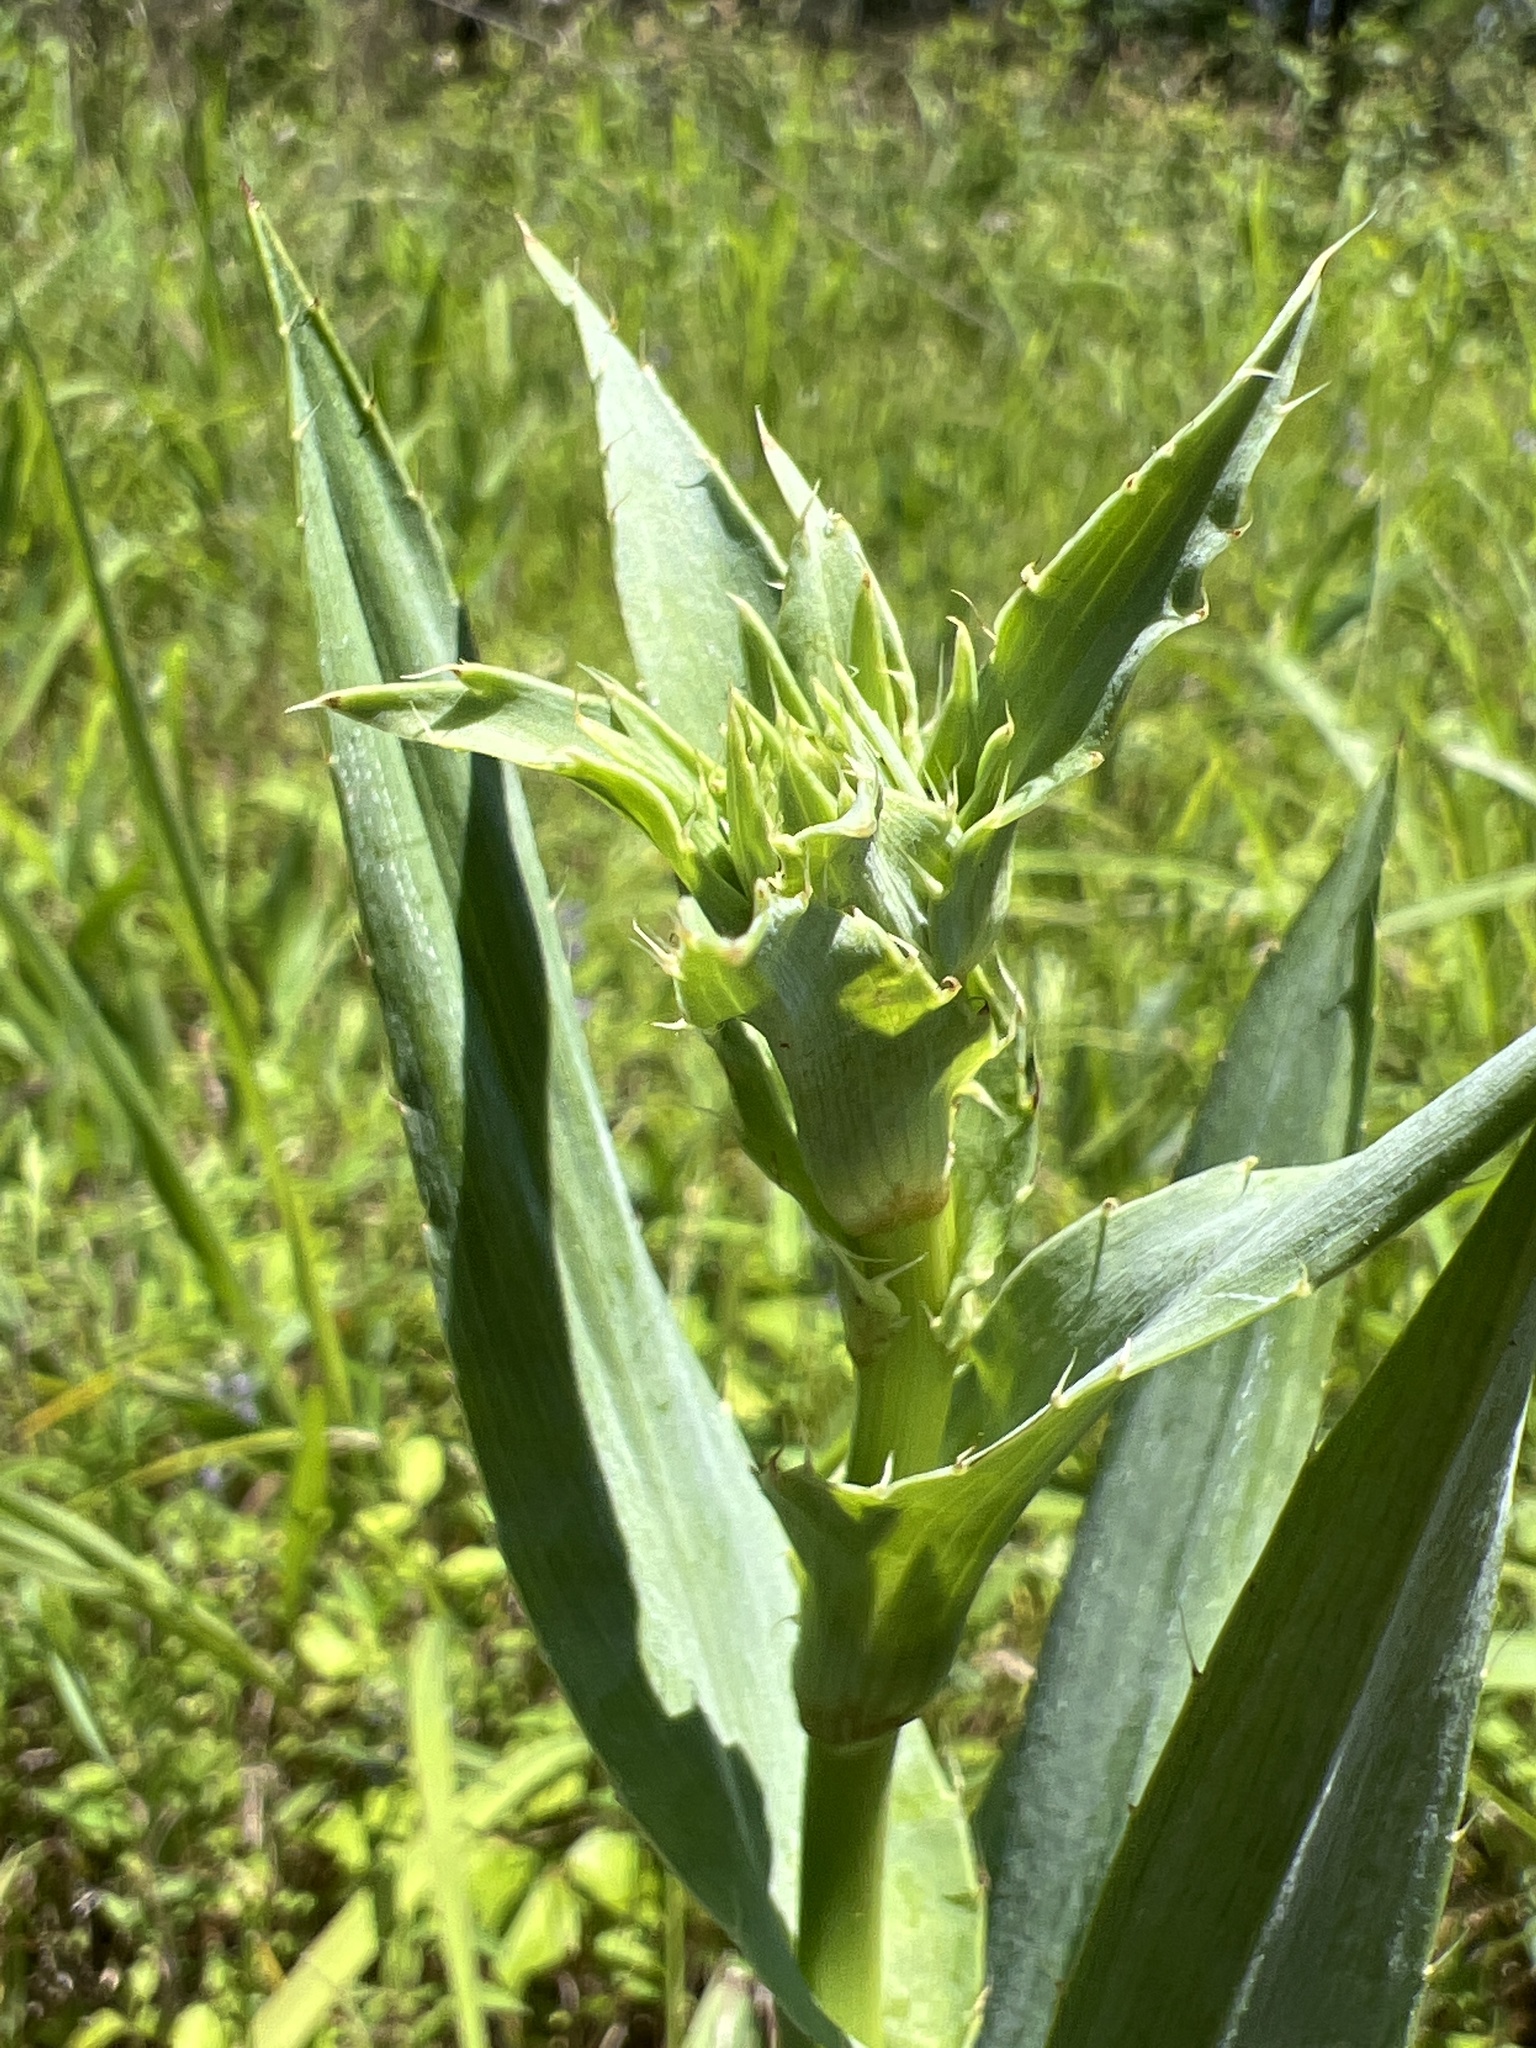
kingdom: Plantae
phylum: Tracheophyta
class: Magnoliopsida
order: Apiales
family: Apiaceae
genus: Eryngium
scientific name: Eryngium yuccifolium
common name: Button eryngo
